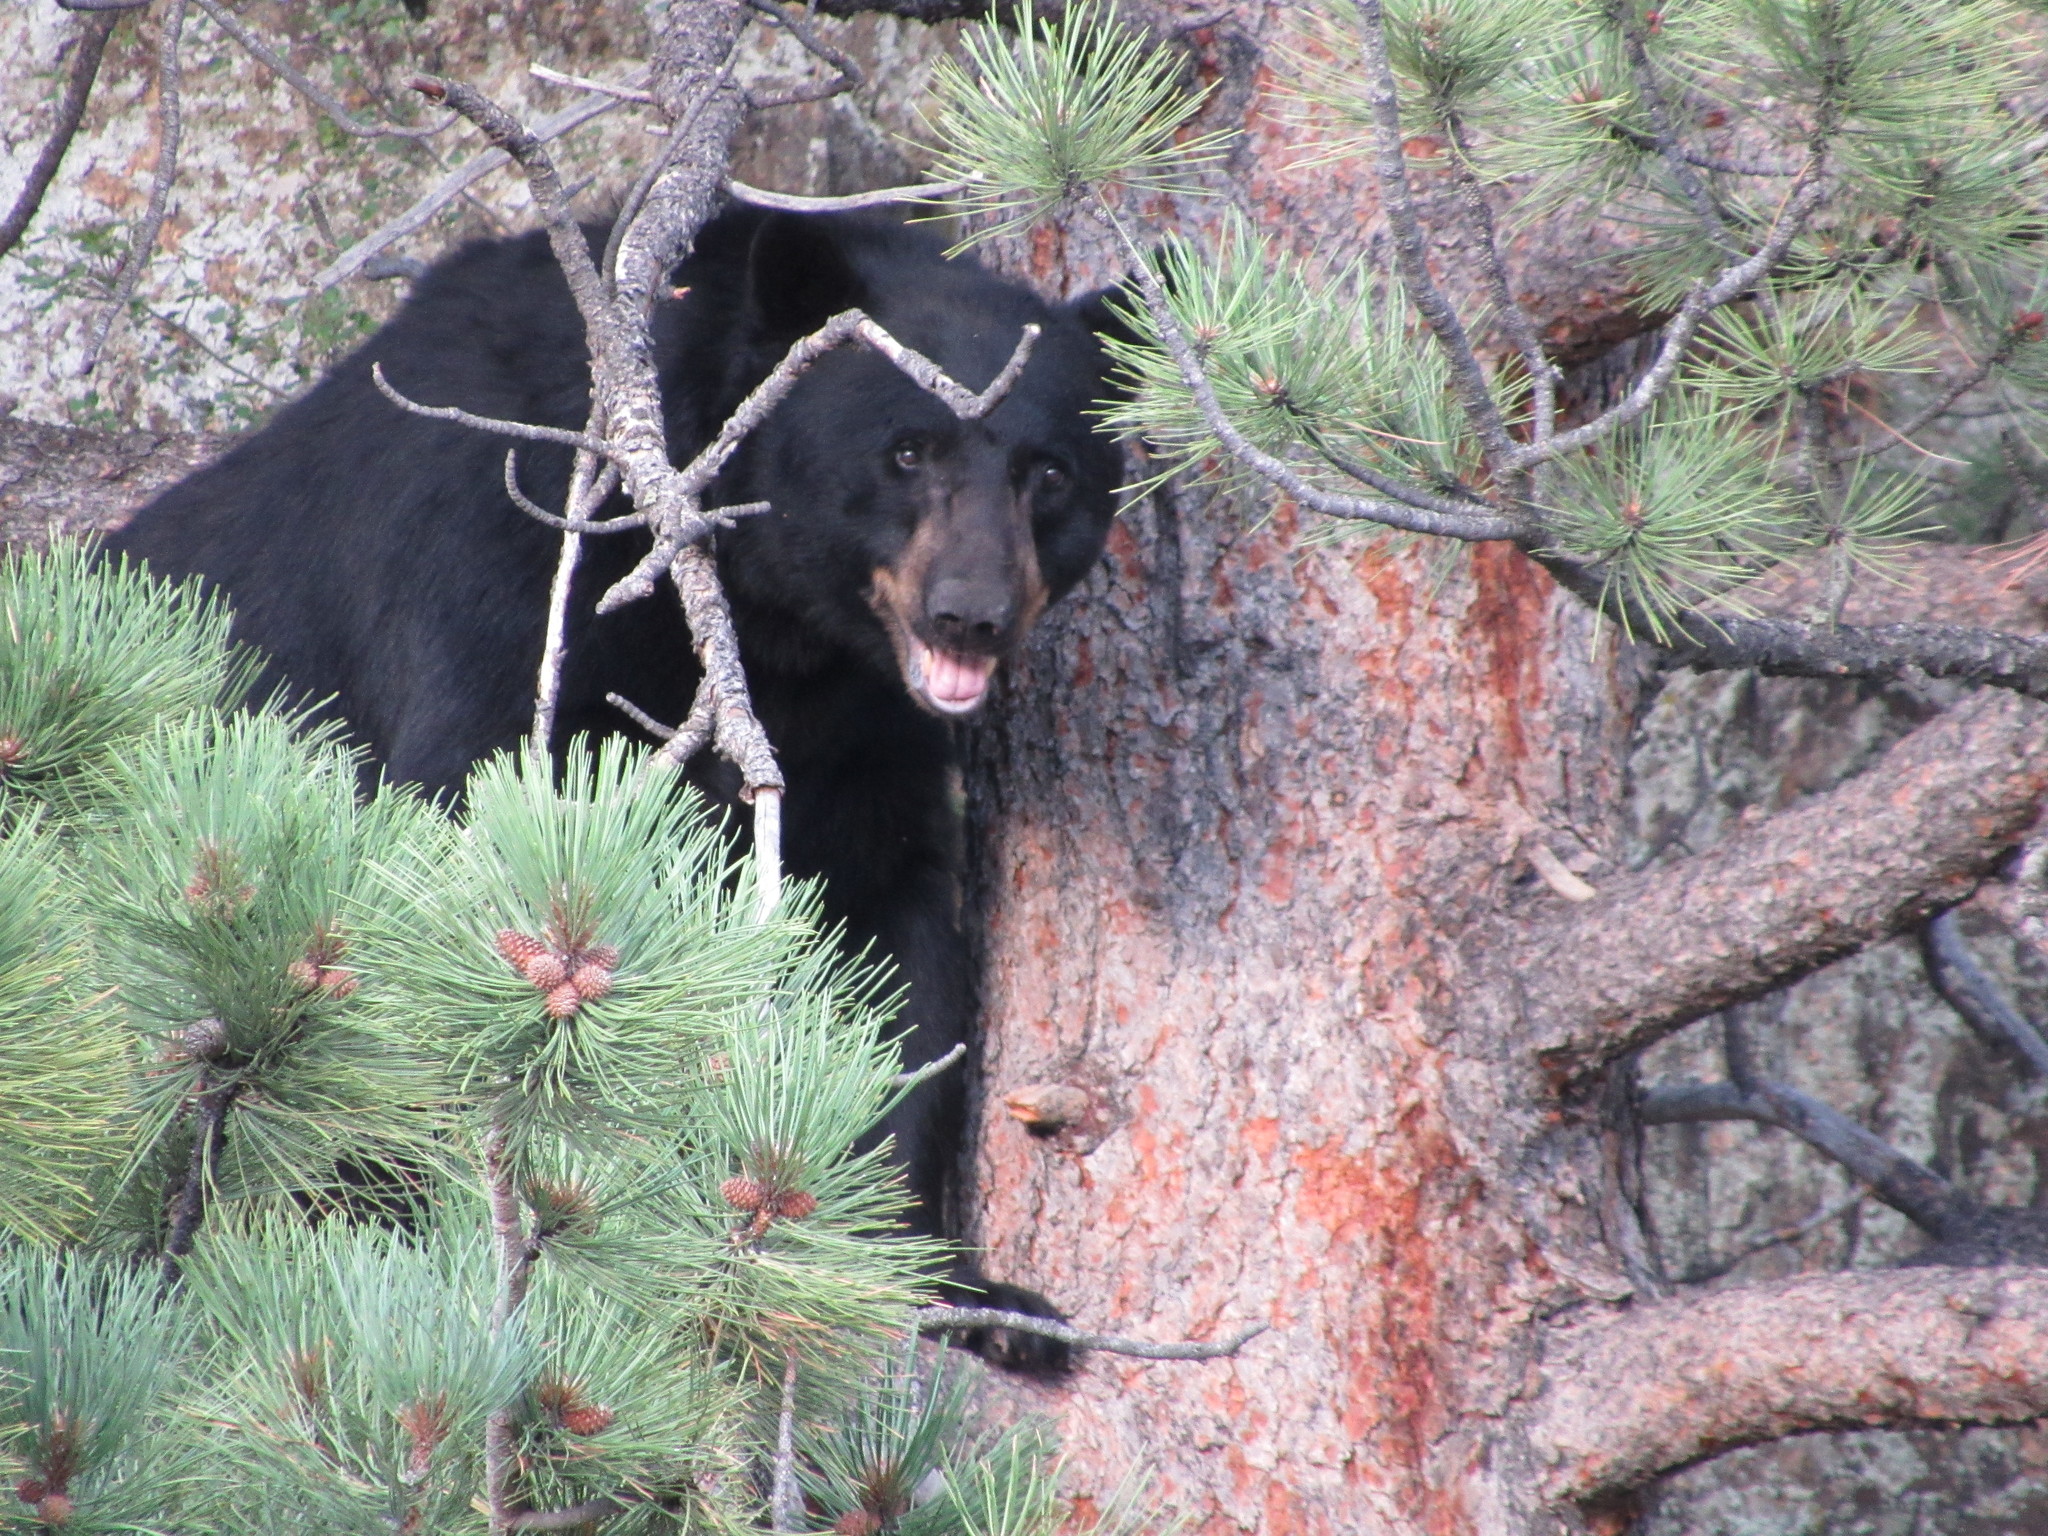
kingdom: Animalia
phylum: Chordata
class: Mammalia
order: Carnivora
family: Ursidae
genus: Ursus
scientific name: Ursus americanus
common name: American black bear
